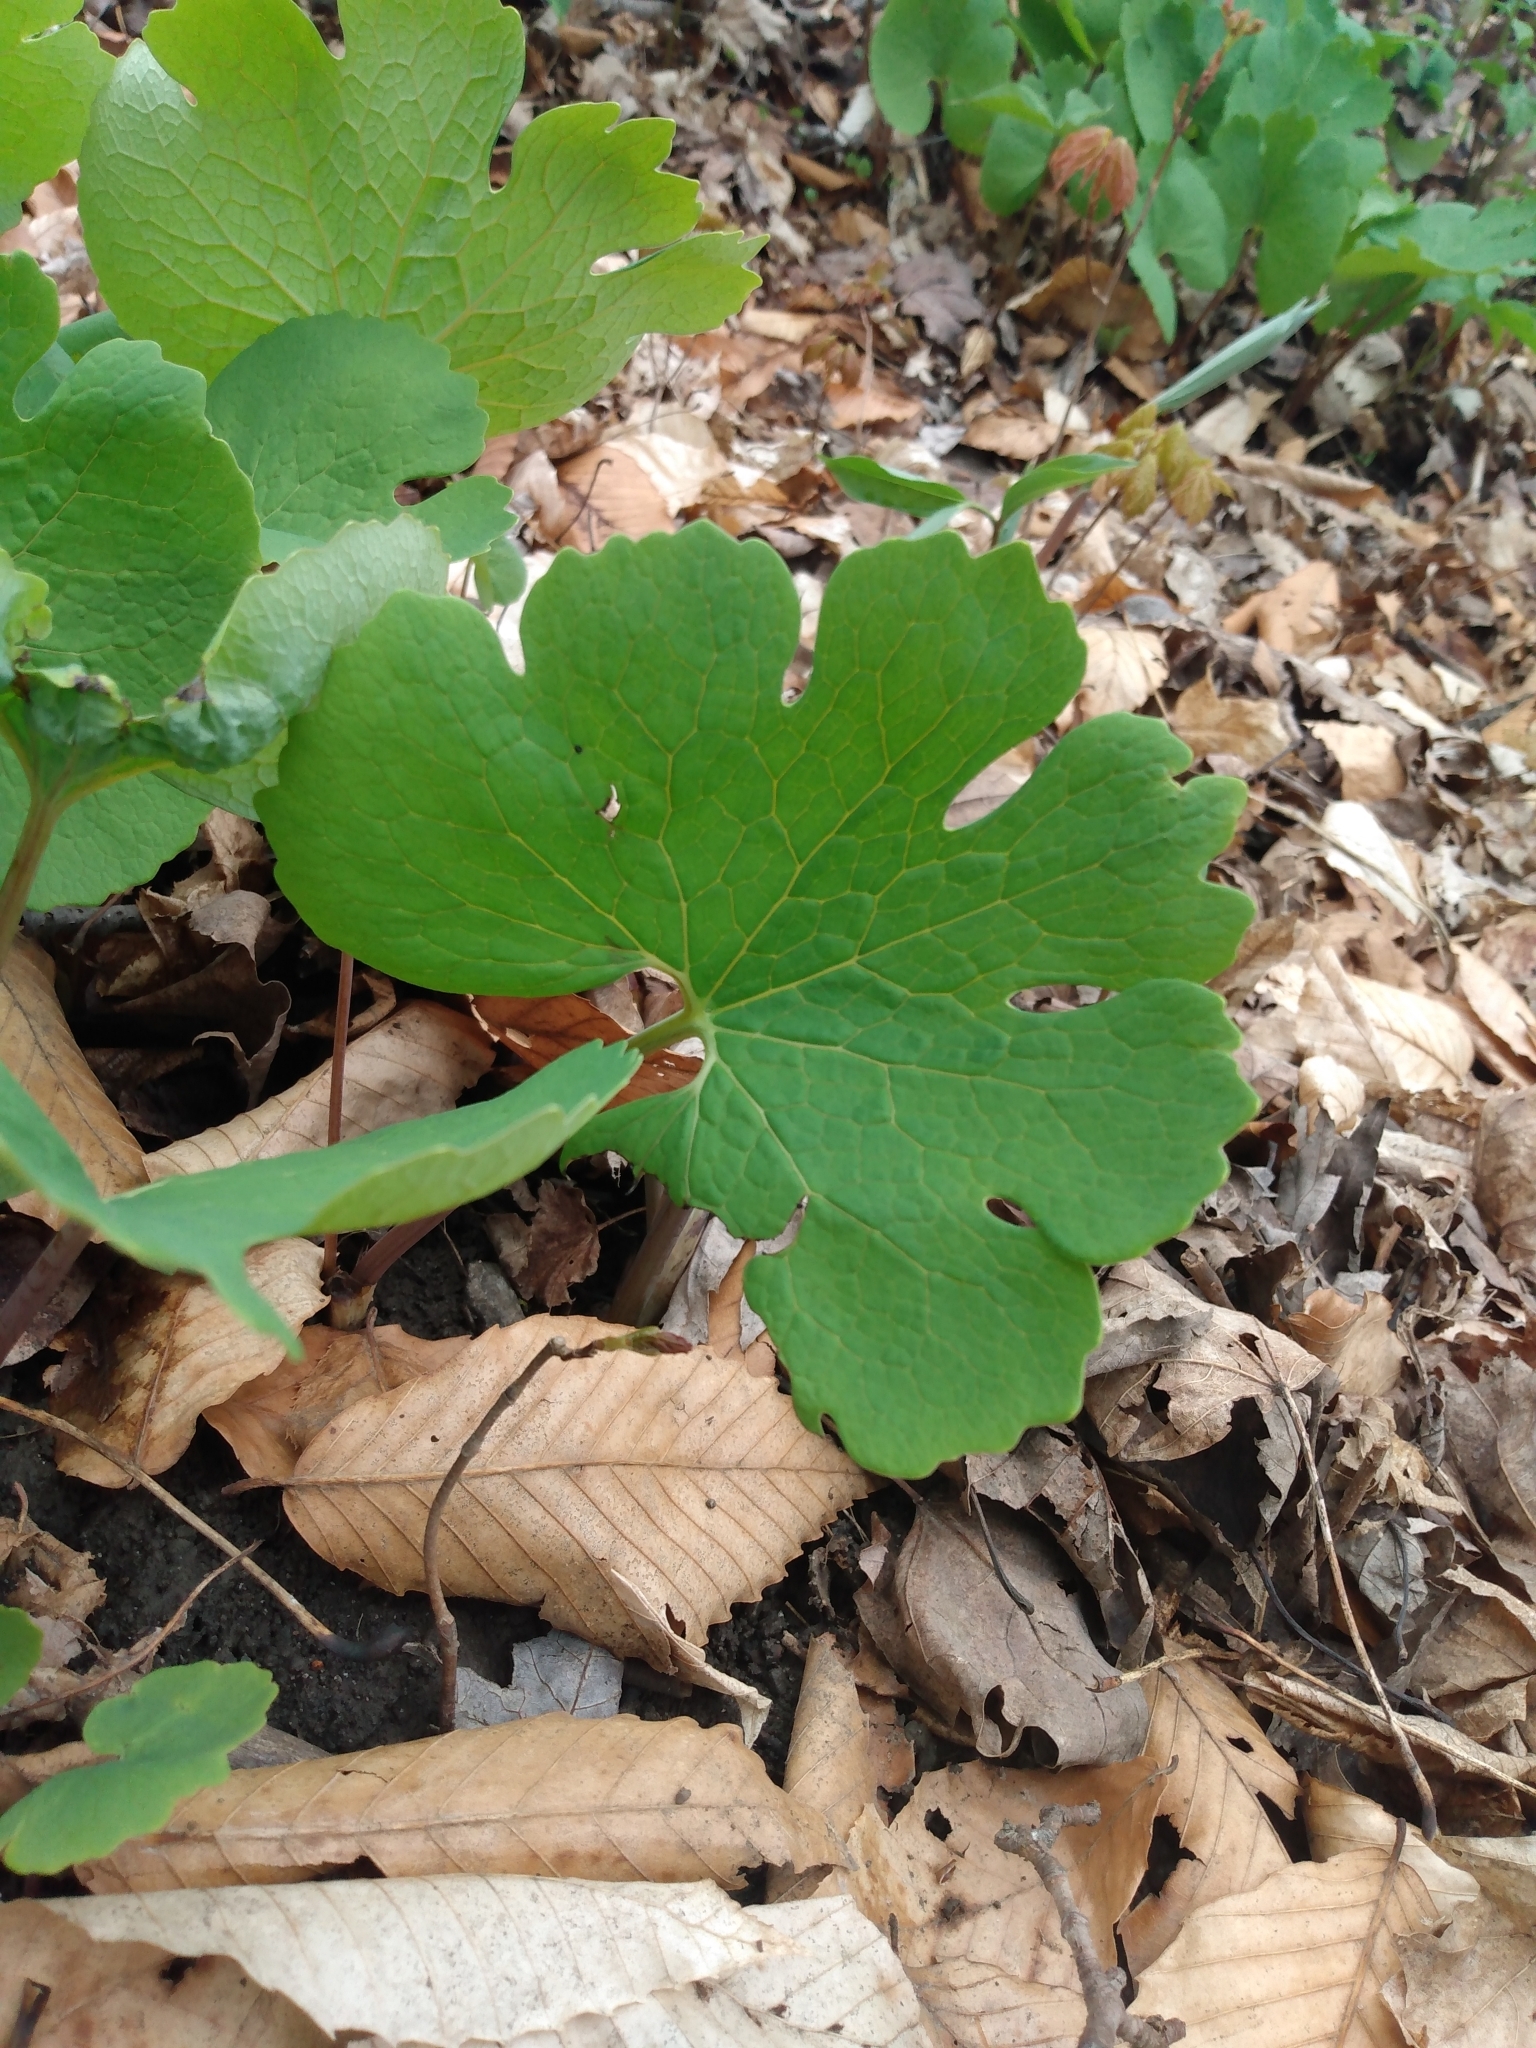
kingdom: Plantae
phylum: Tracheophyta
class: Magnoliopsida
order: Ranunculales
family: Papaveraceae
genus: Sanguinaria
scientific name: Sanguinaria canadensis
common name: Bloodroot
